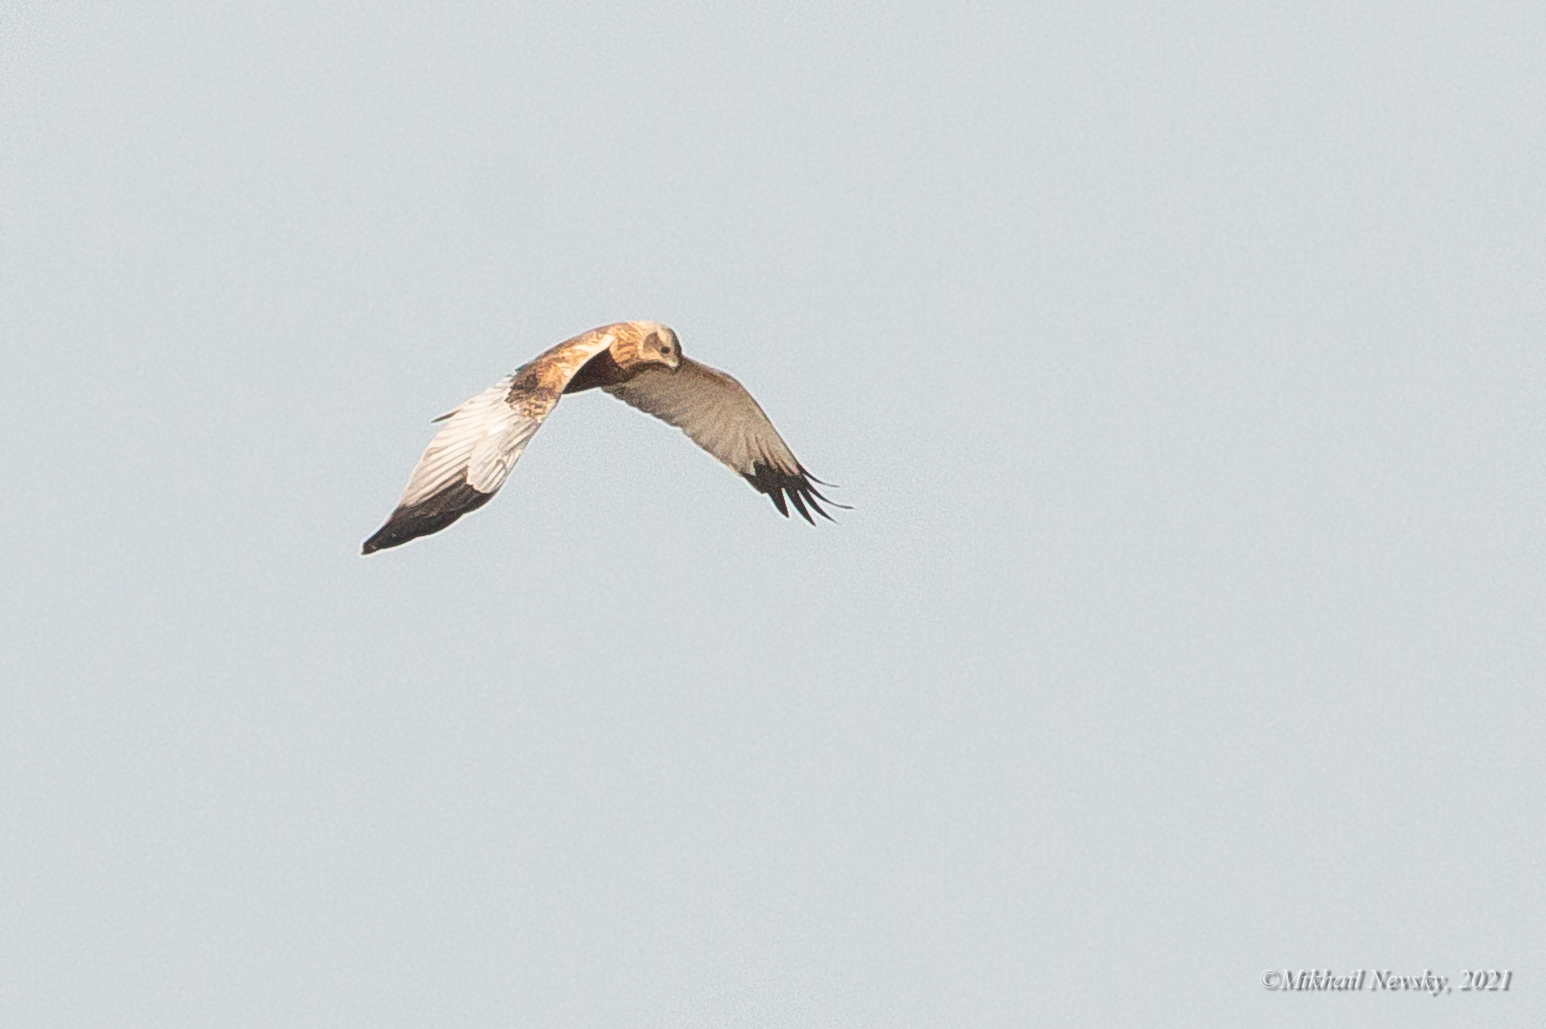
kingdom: Animalia
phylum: Chordata
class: Aves
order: Accipitriformes
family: Accipitridae
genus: Circus
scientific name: Circus aeruginosus
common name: Western marsh harrier
